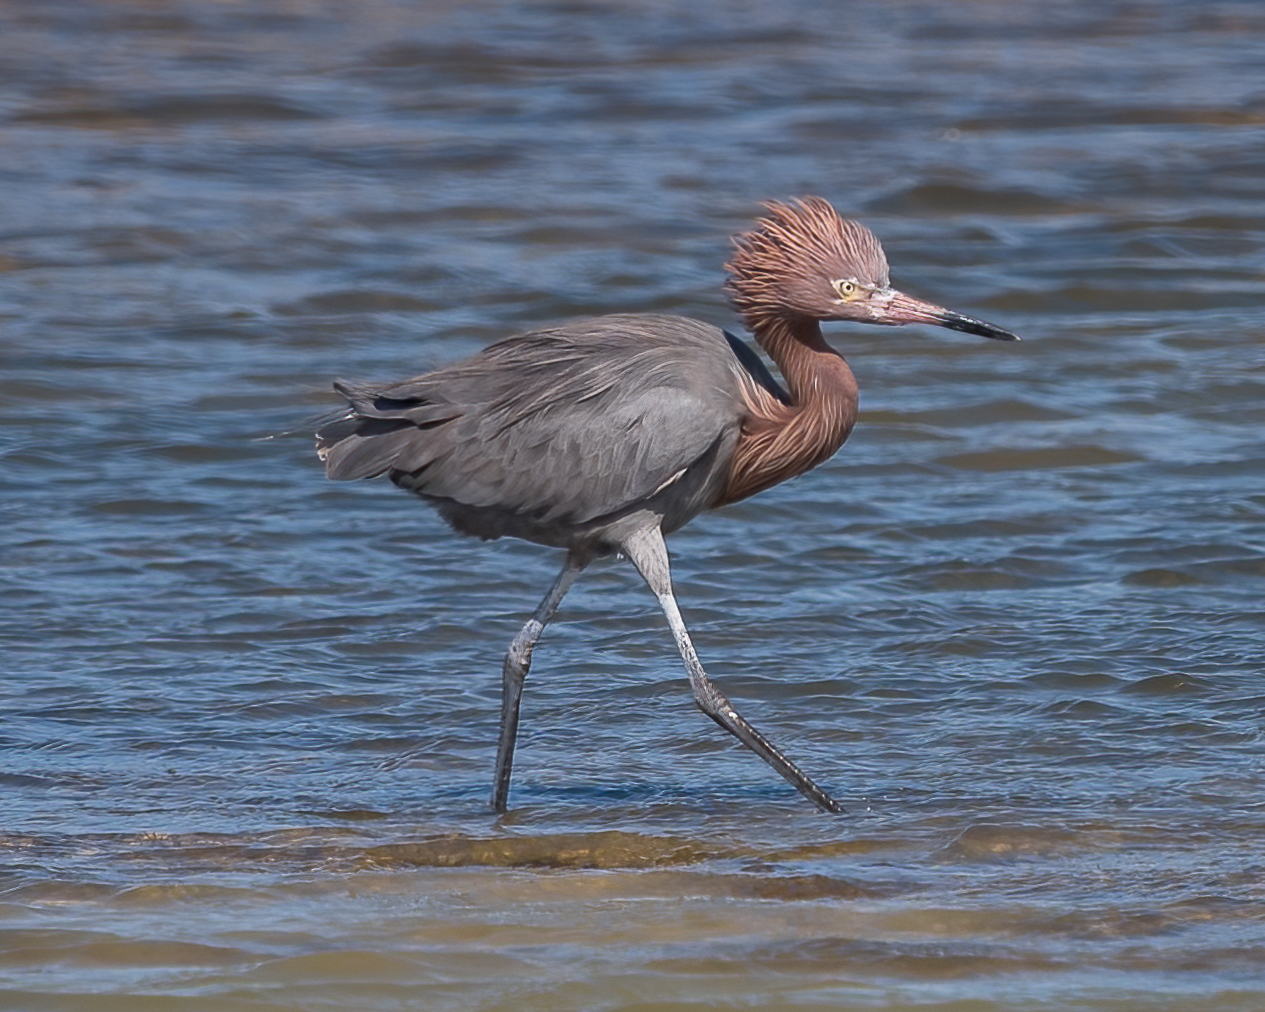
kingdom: Animalia
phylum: Chordata
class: Aves
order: Pelecaniformes
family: Ardeidae
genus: Egretta
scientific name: Egretta rufescens
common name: Reddish egret
